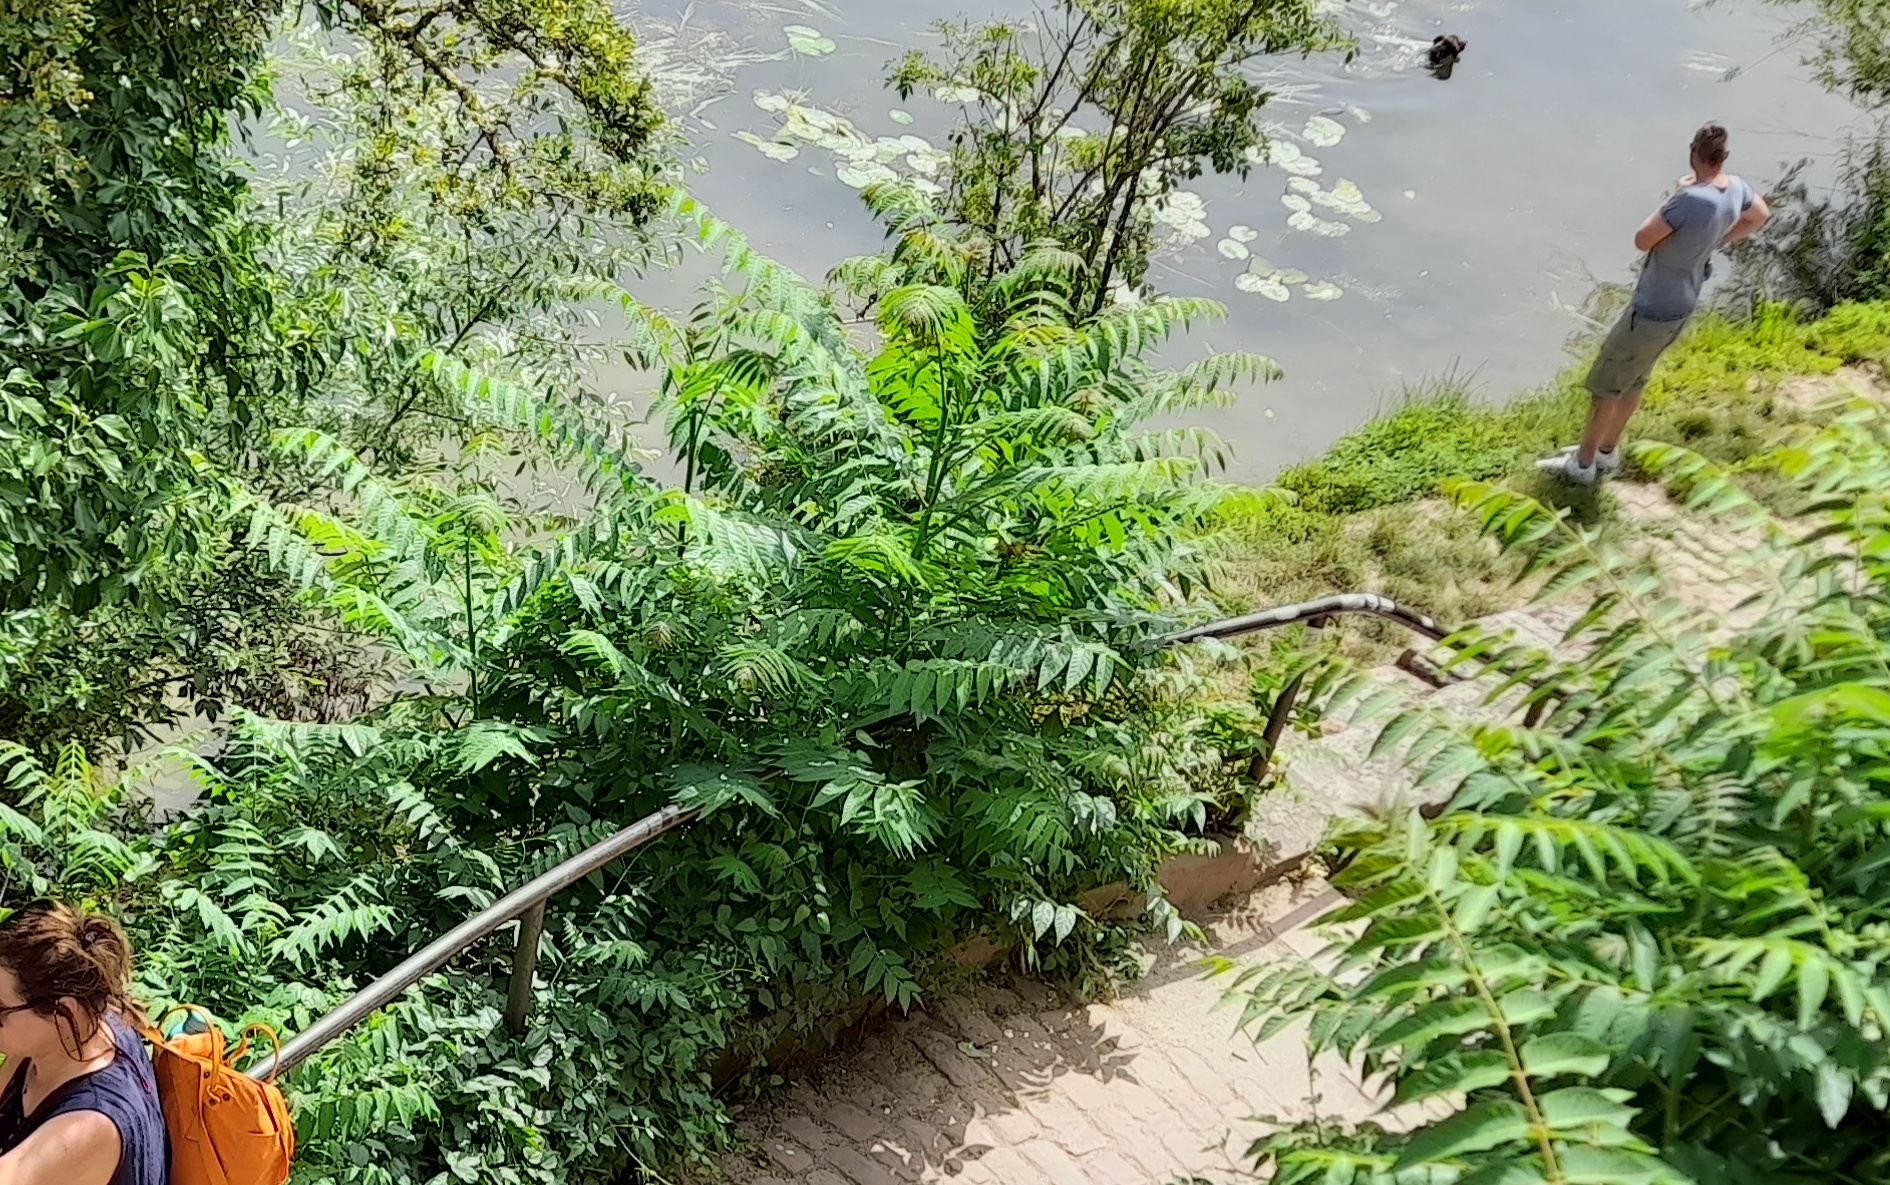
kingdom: Plantae
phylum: Tracheophyta
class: Magnoliopsida
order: Sapindales
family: Simaroubaceae
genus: Ailanthus
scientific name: Ailanthus altissima
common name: Tree-of-heaven
